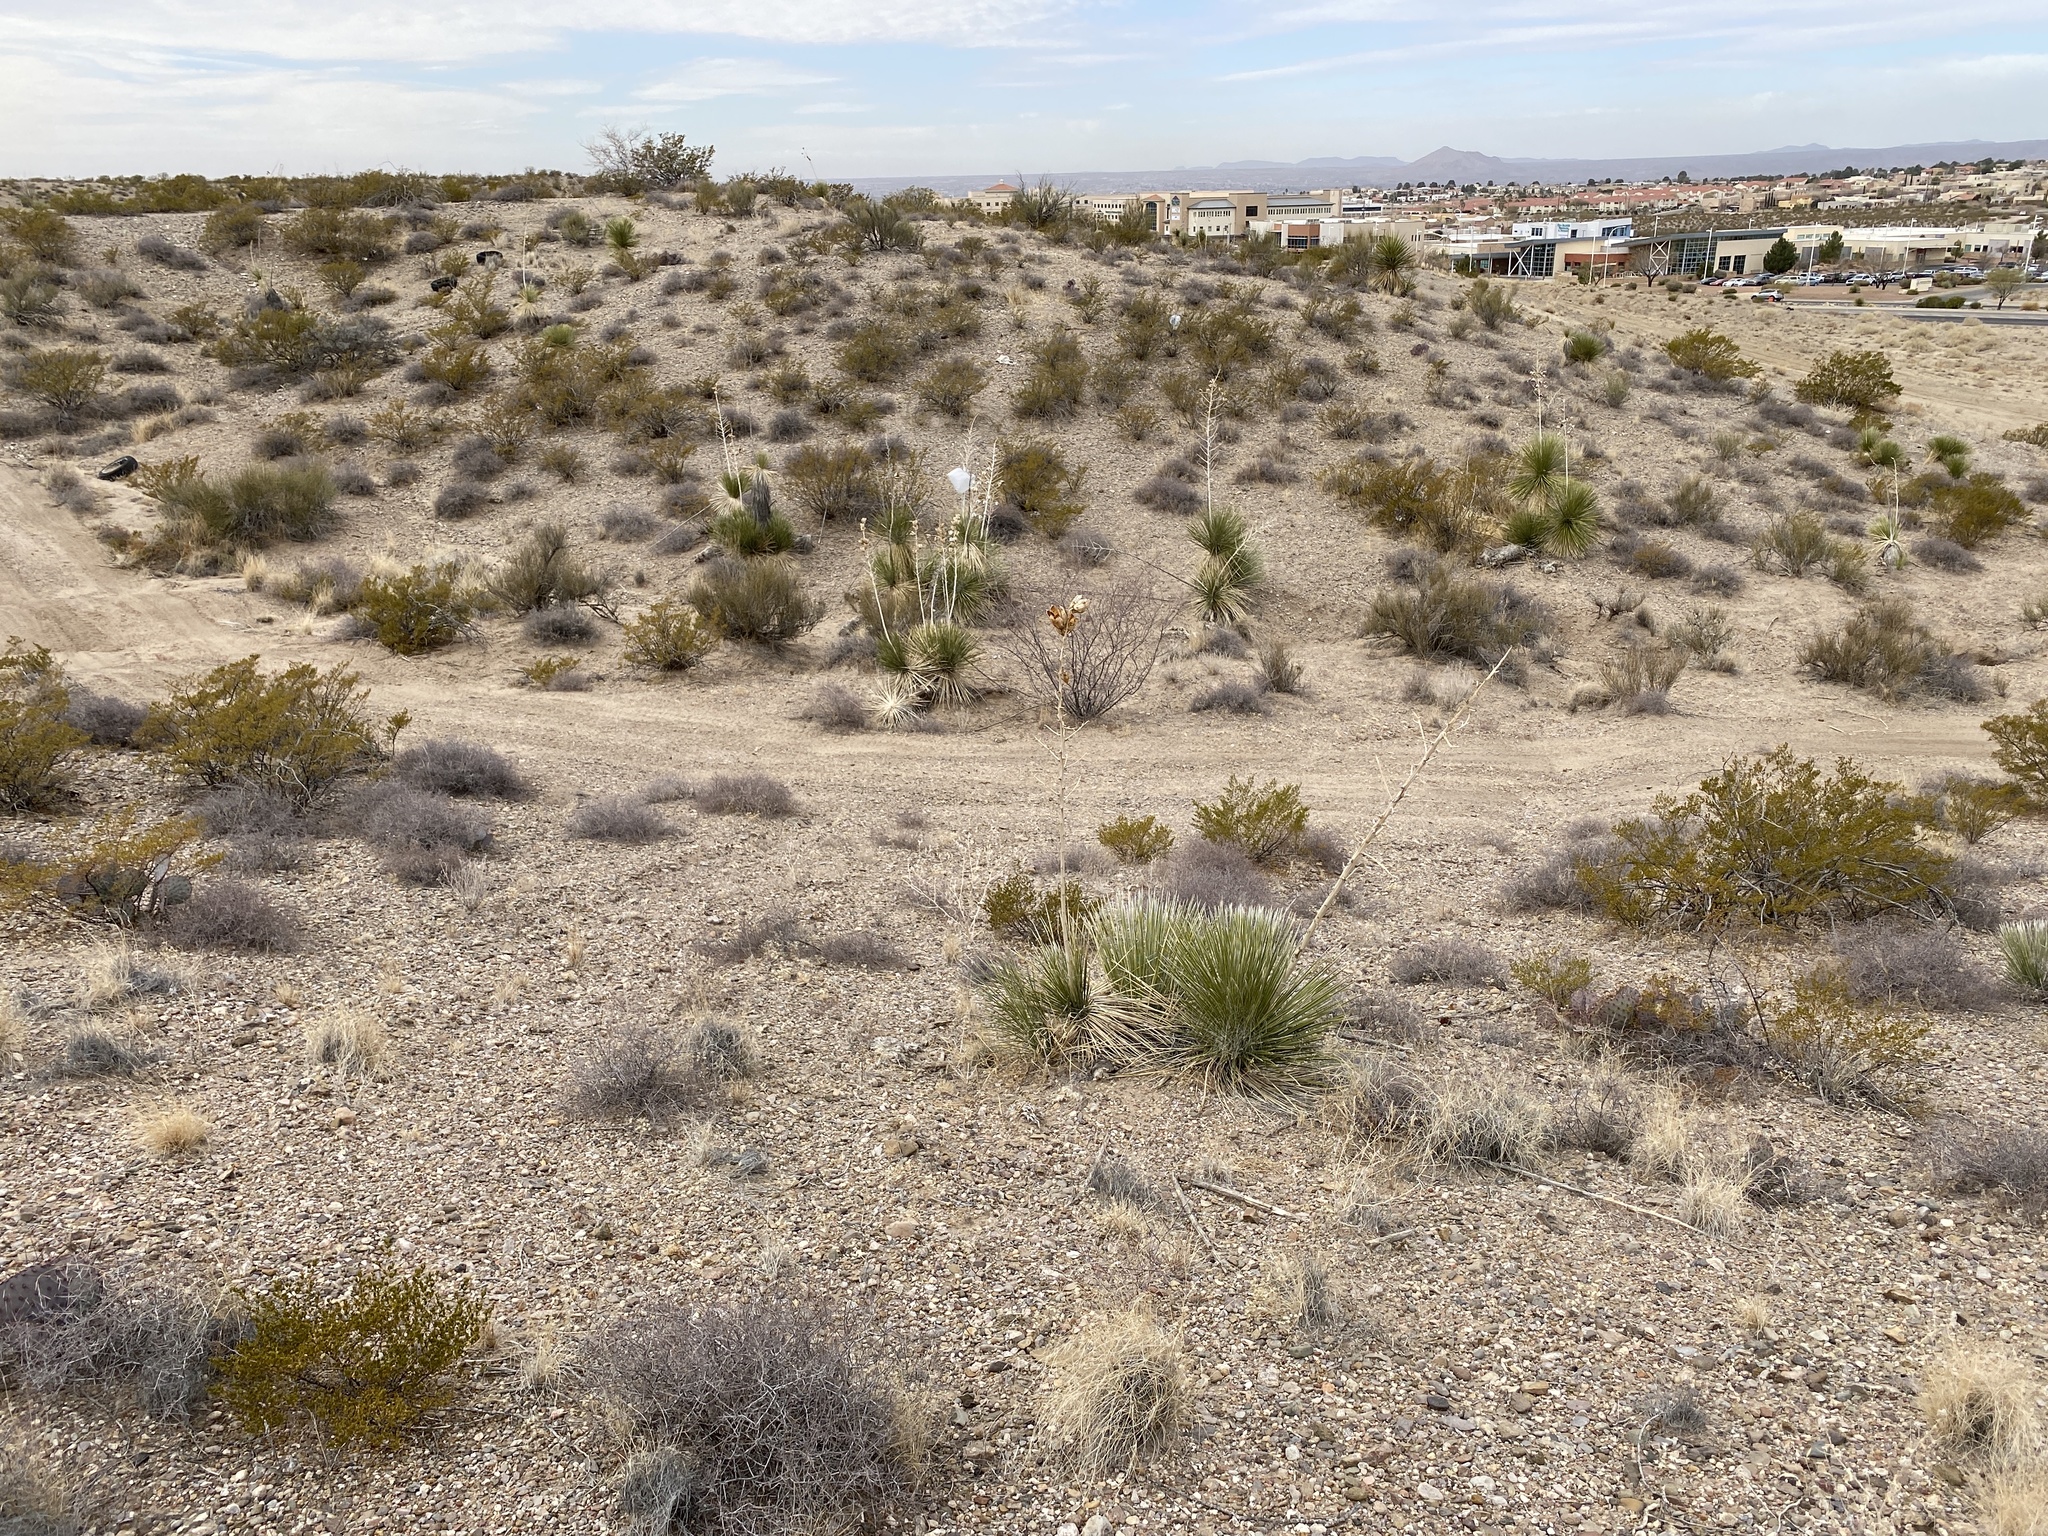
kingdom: Plantae
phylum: Tracheophyta
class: Liliopsida
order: Asparagales
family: Asparagaceae
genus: Yucca
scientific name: Yucca elata
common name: Palmella
